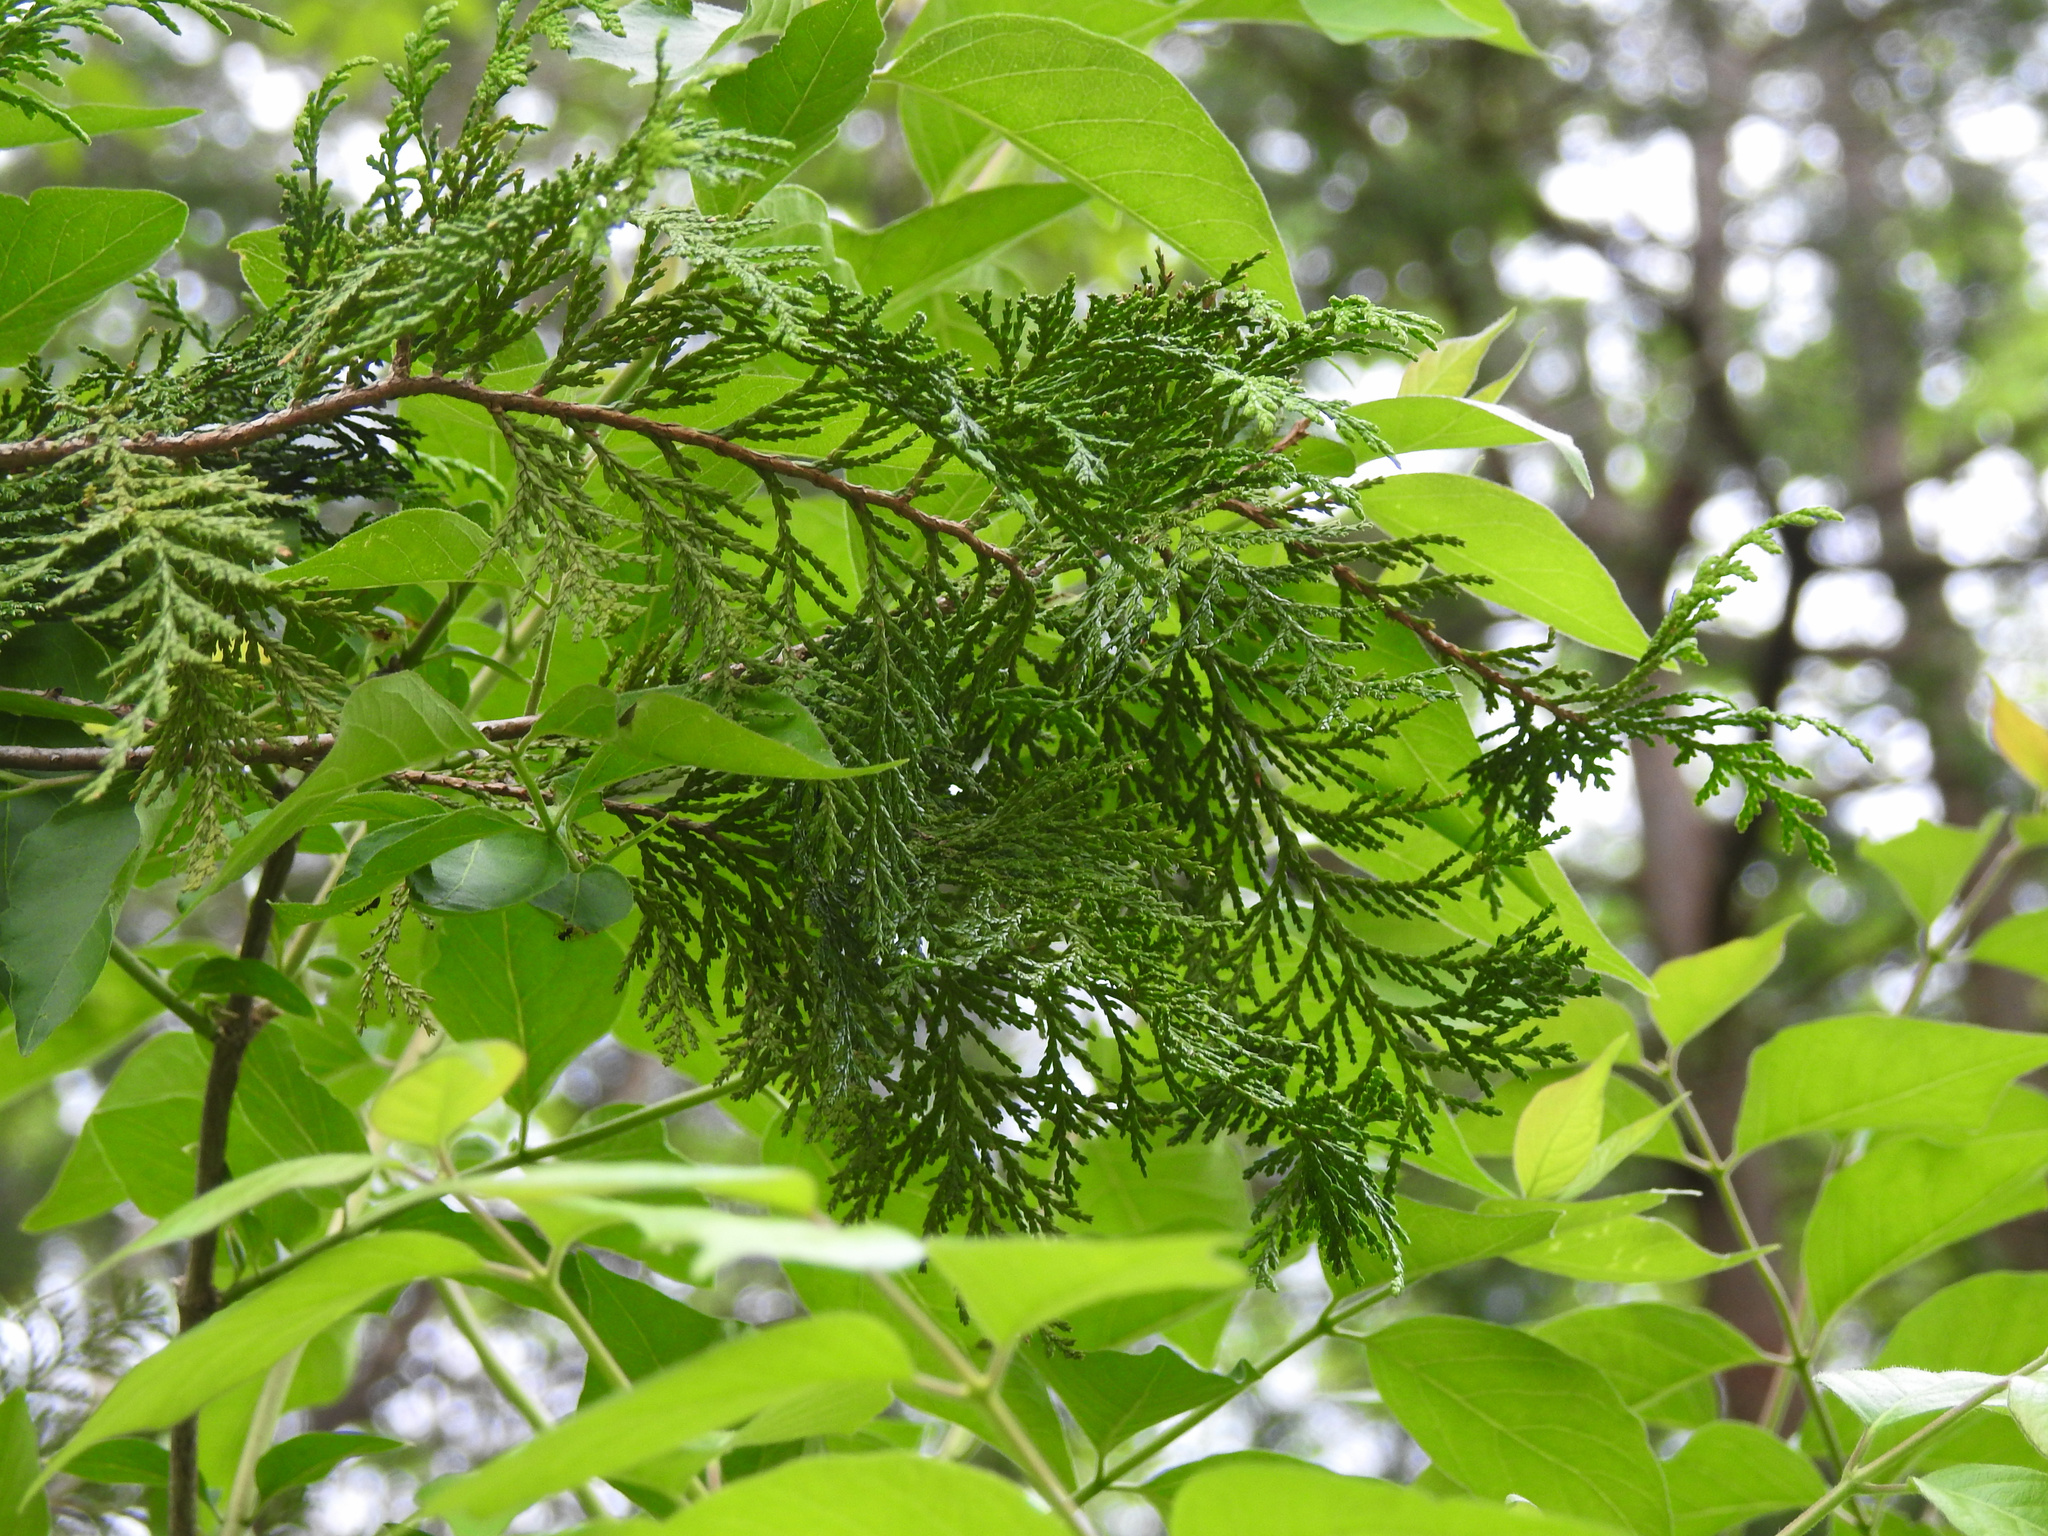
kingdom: Plantae
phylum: Tracheophyta
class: Pinopsida
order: Pinales
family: Cupressaceae
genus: Juniperus
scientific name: Juniperus virginiana
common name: Red juniper
